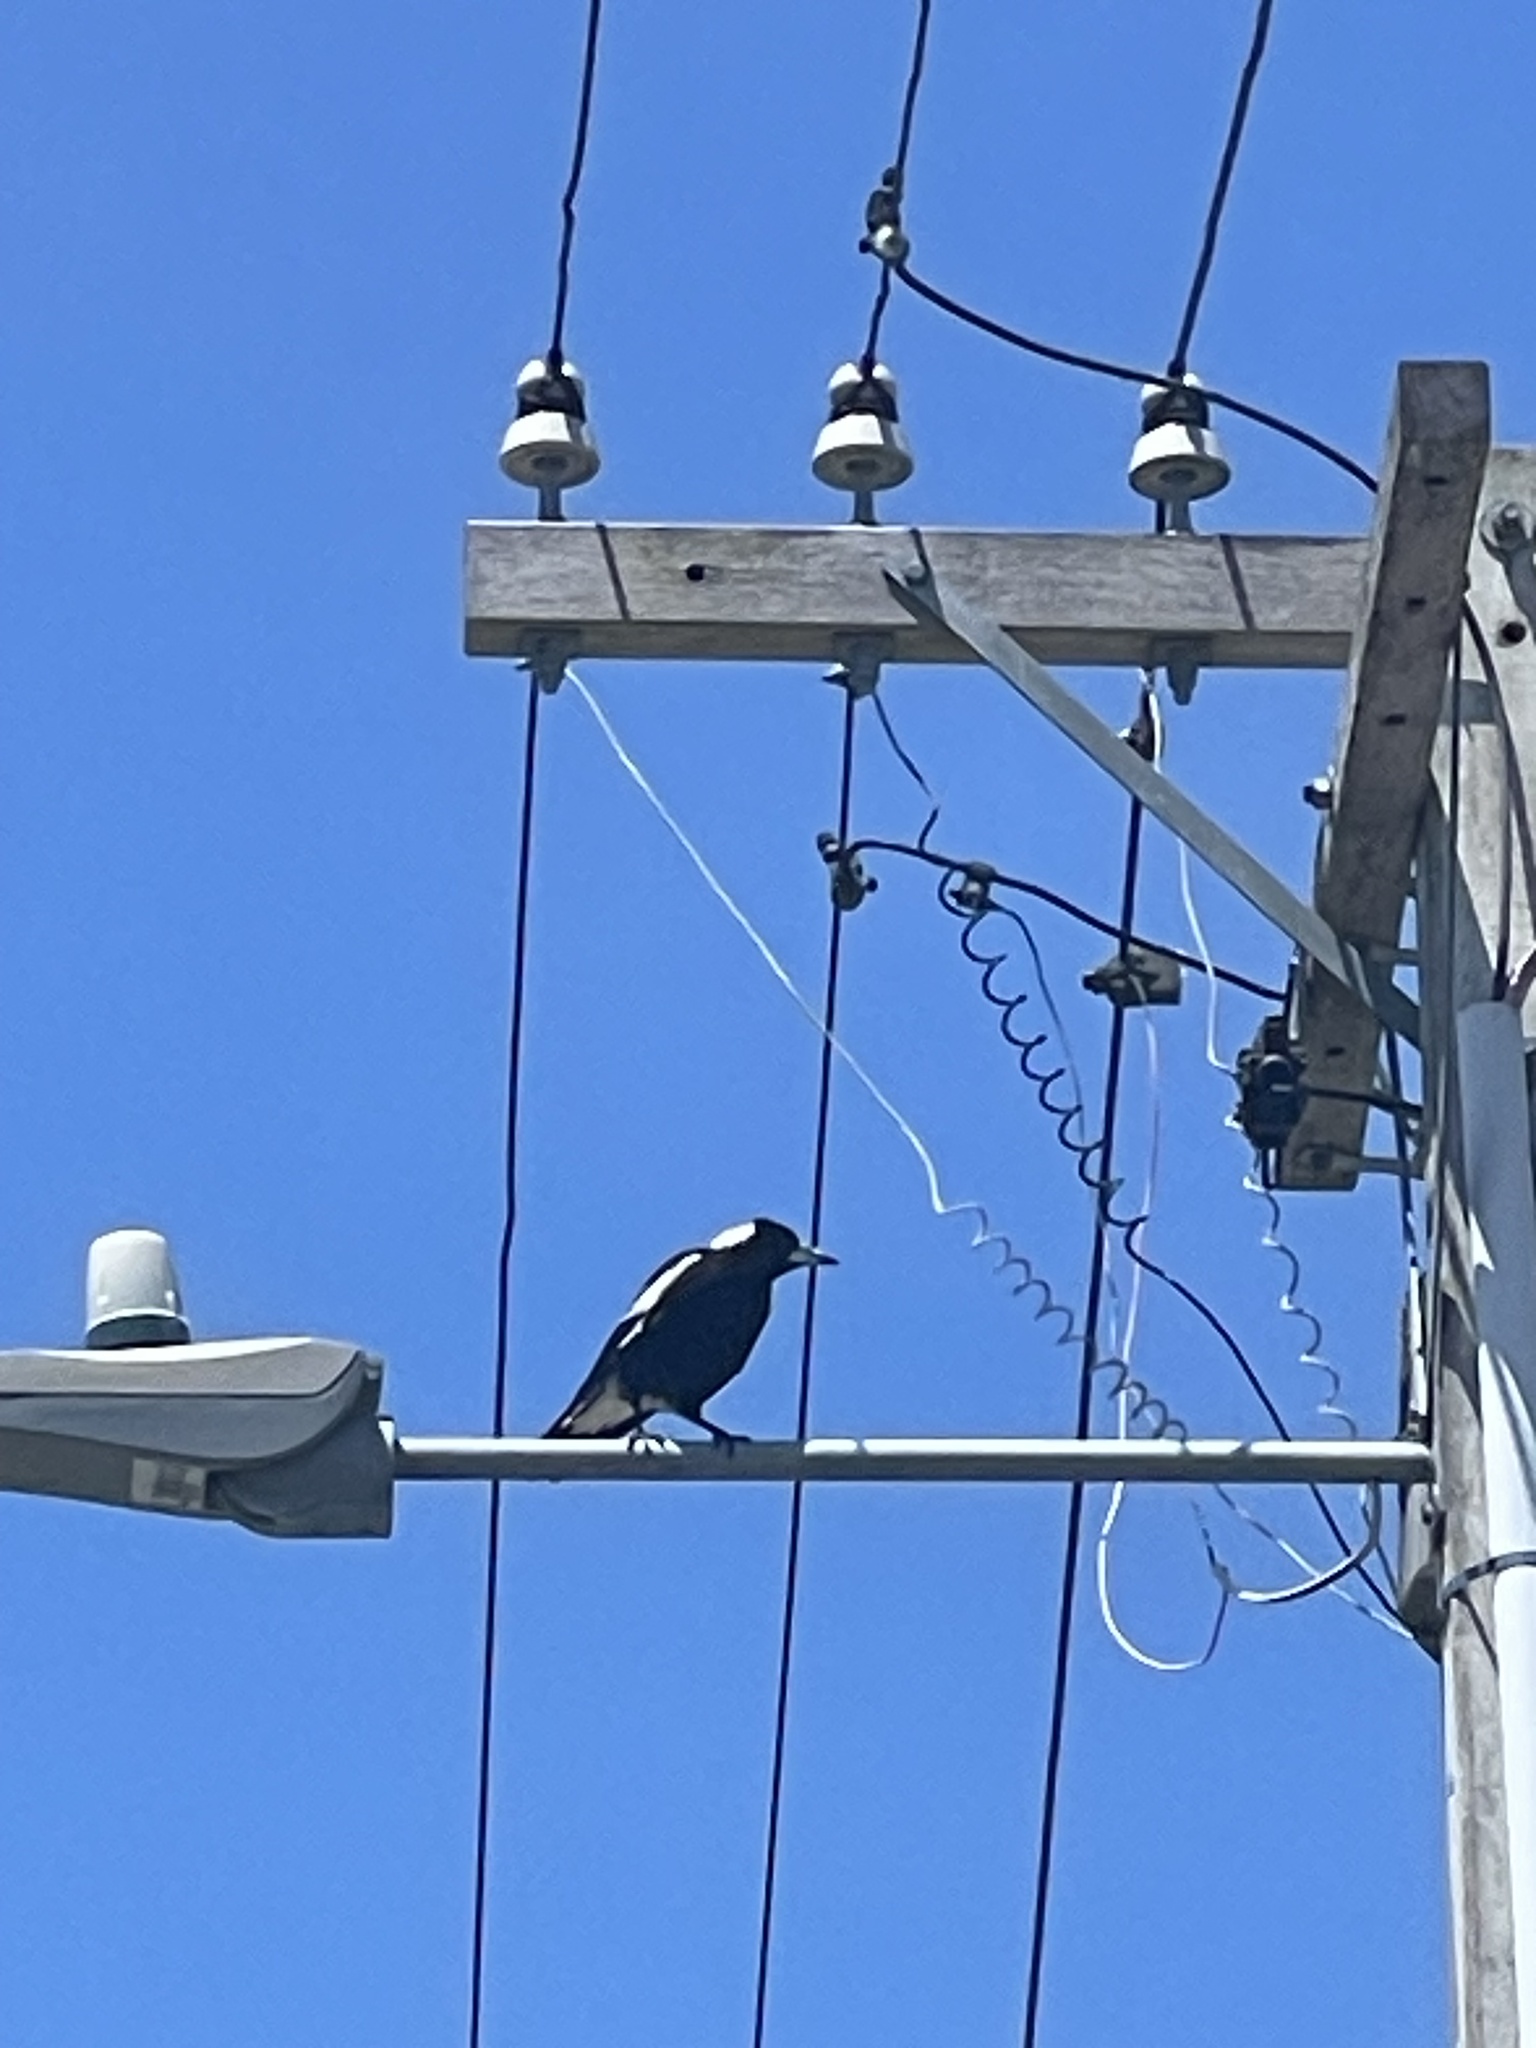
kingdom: Animalia
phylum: Chordata
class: Aves
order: Passeriformes
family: Cracticidae
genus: Gymnorhina
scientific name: Gymnorhina tibicen
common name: Australian magpie
